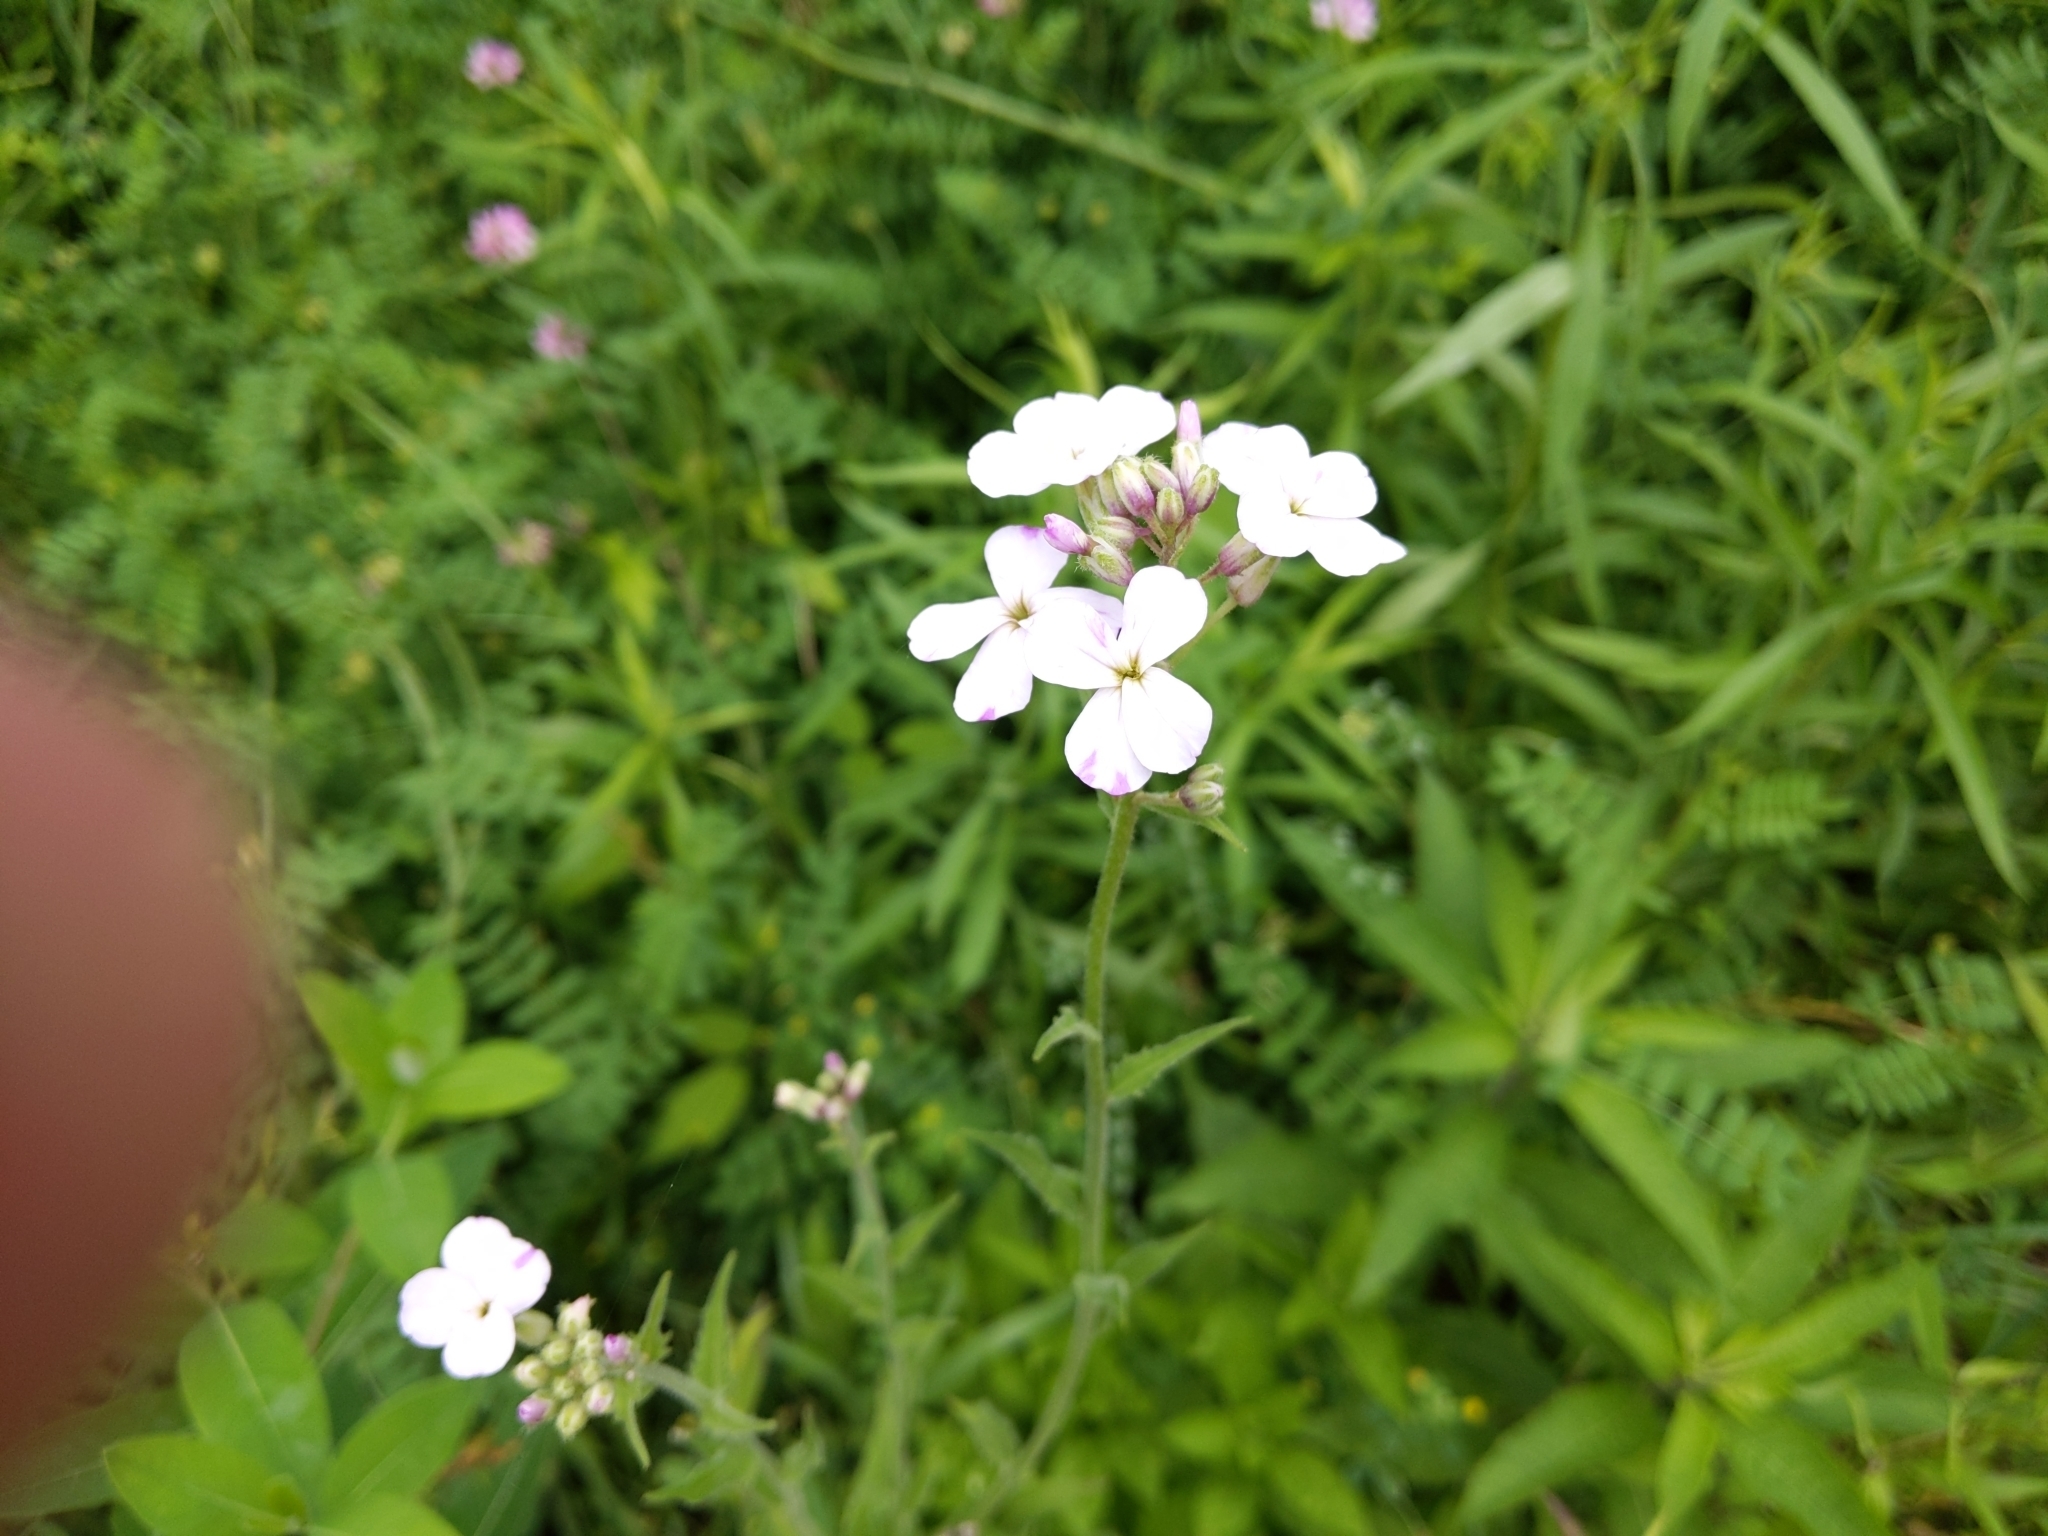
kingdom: Plantae
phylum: Tracheophyta
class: Magnoliopsida
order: Brassicales
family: Brassicaceae
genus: Hesperis
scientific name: Hesperis matronalis
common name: Dame's-violet
